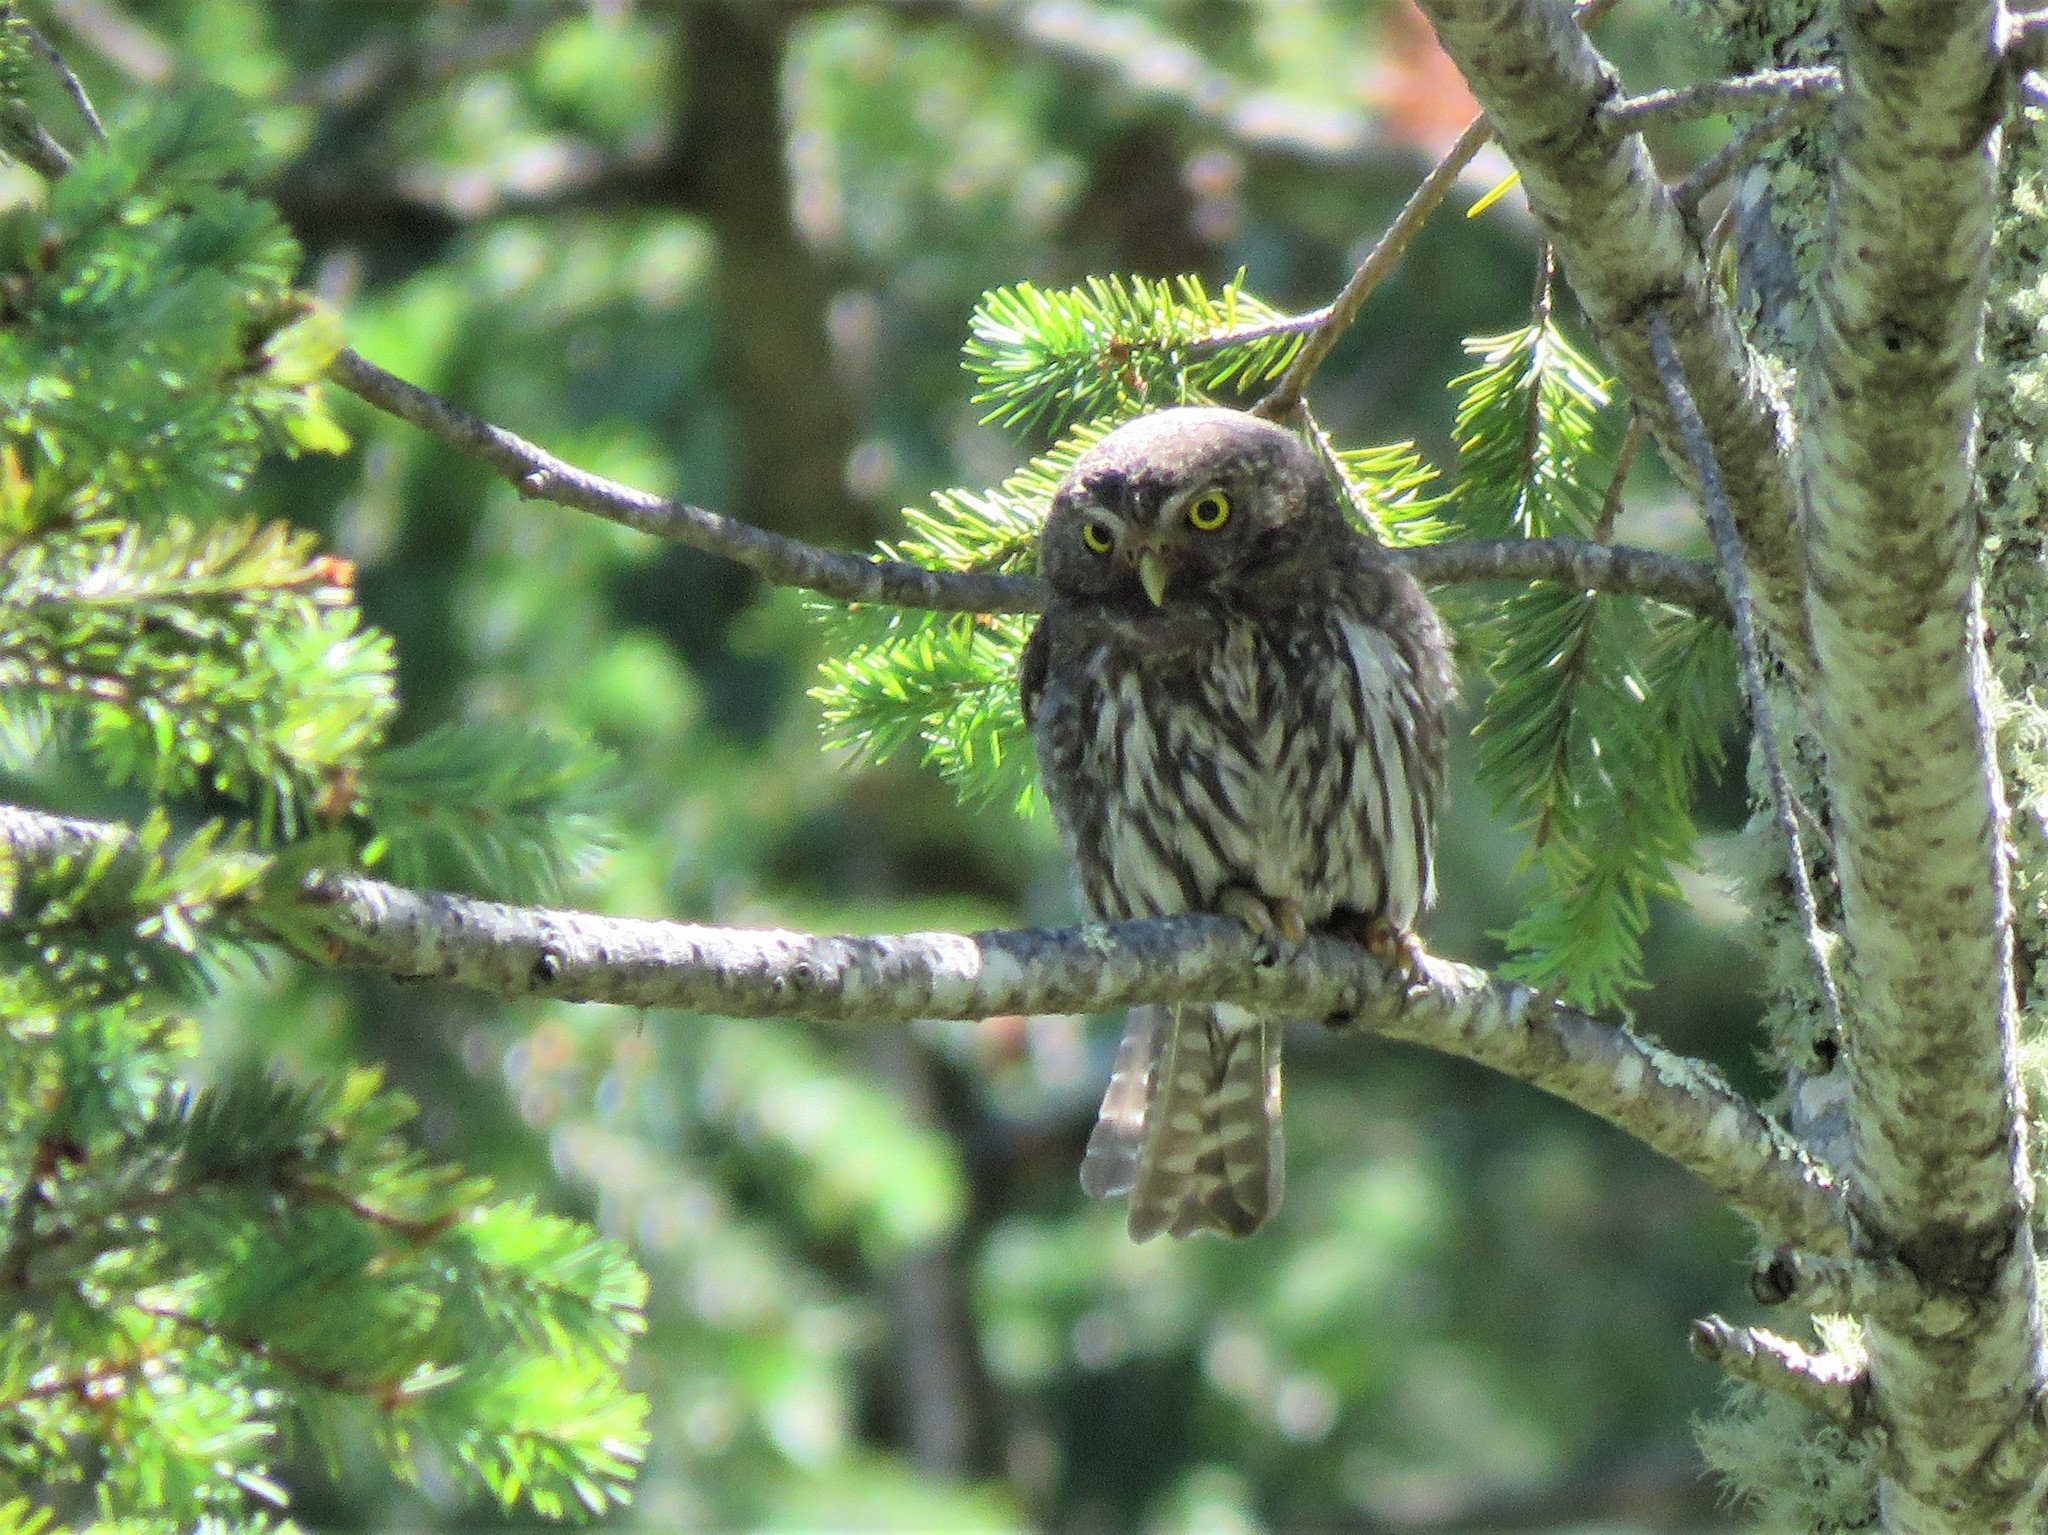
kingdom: Animalia
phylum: Chordata
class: Aves
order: Strigiformes
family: Strigidae
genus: Glaucidium
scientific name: Glaucidium gnoma
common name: Northern pygmy-owl
